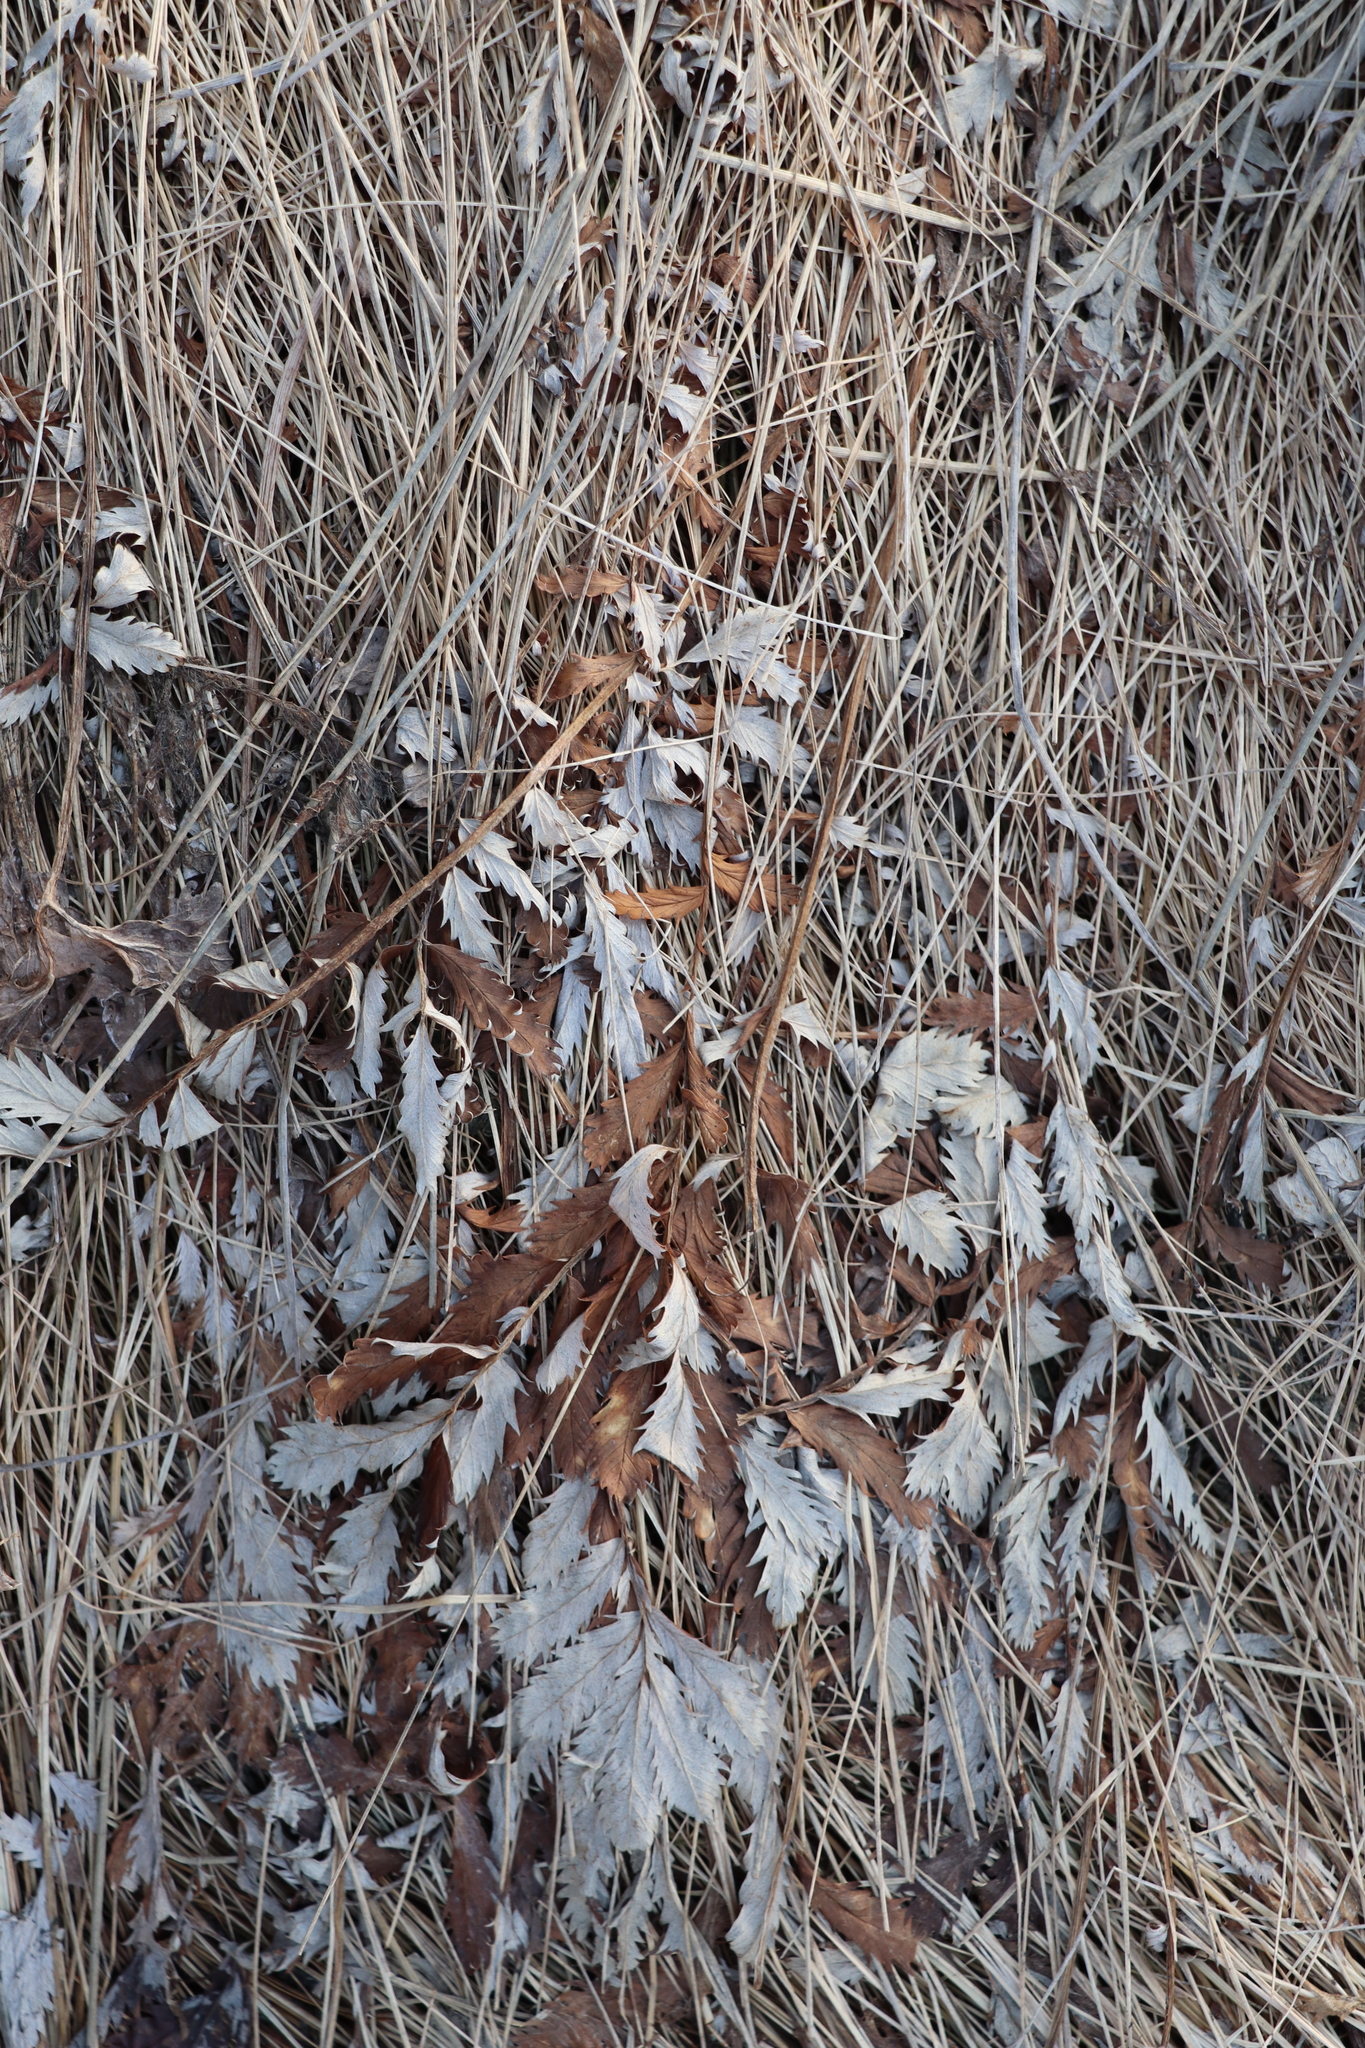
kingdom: Plantae
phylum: Tracheophyta
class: Magnoliopsida
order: Rosales
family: Rosaceae
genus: Argentina
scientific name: Argentina anserina
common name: Common silverweed
